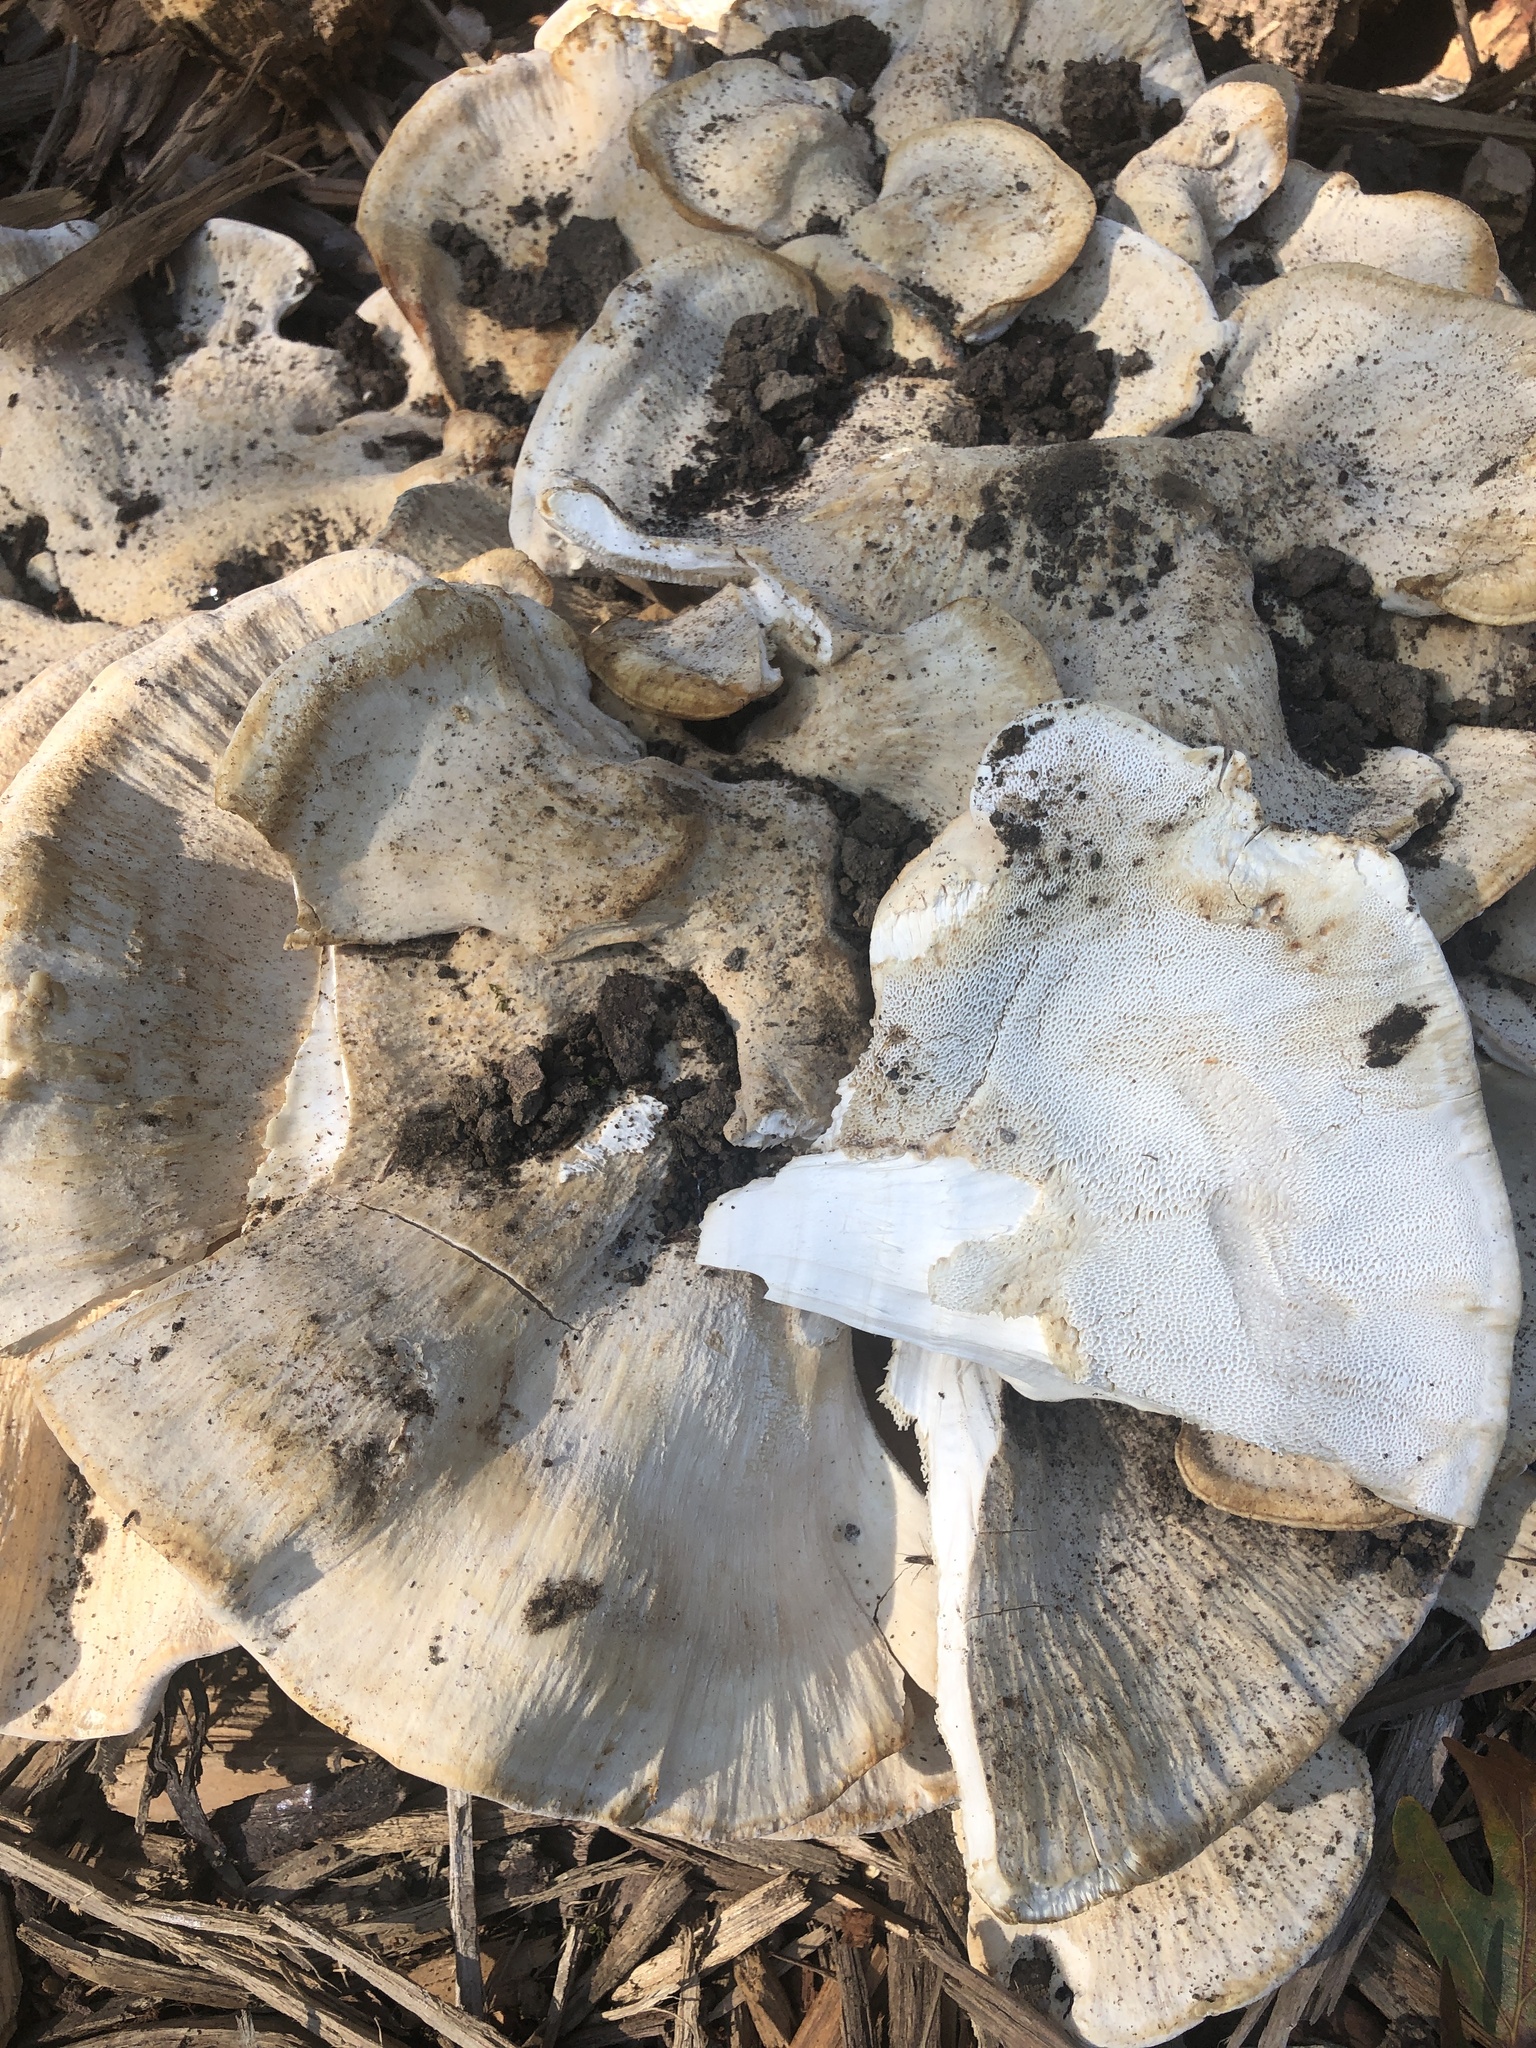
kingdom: Fungi
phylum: Basidiomycota
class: Agaricomycetes
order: Russulales
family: Bondarzewiaceae
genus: Bondarzewia
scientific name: Bondarzewia berkeleyi
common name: Berkeley's polypore
